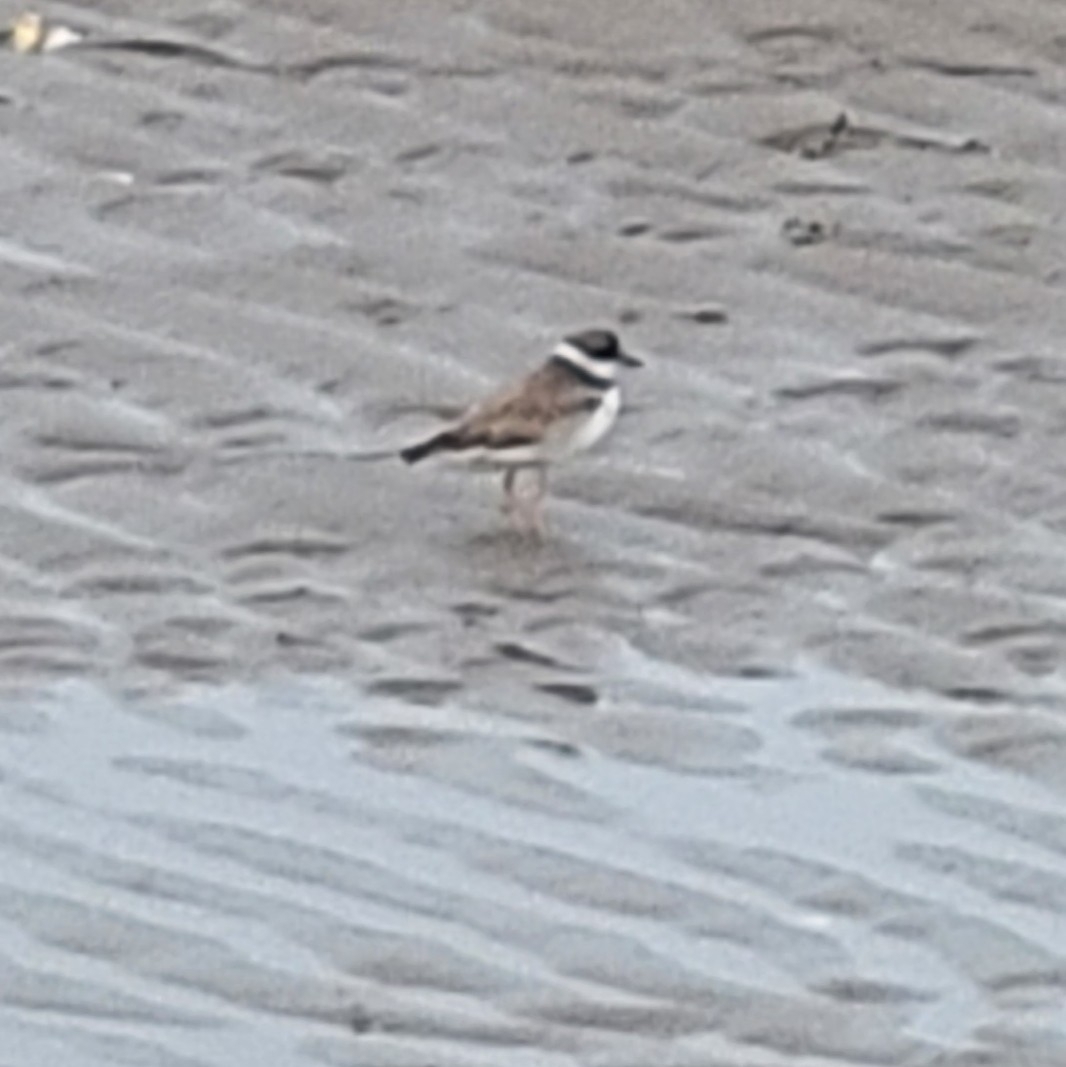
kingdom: Animalia
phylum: Chordata
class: Aves
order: Charadriiformes
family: Charadriidae
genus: Charadrius
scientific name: Charadrius semipalmatus
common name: Semipalmated plover
